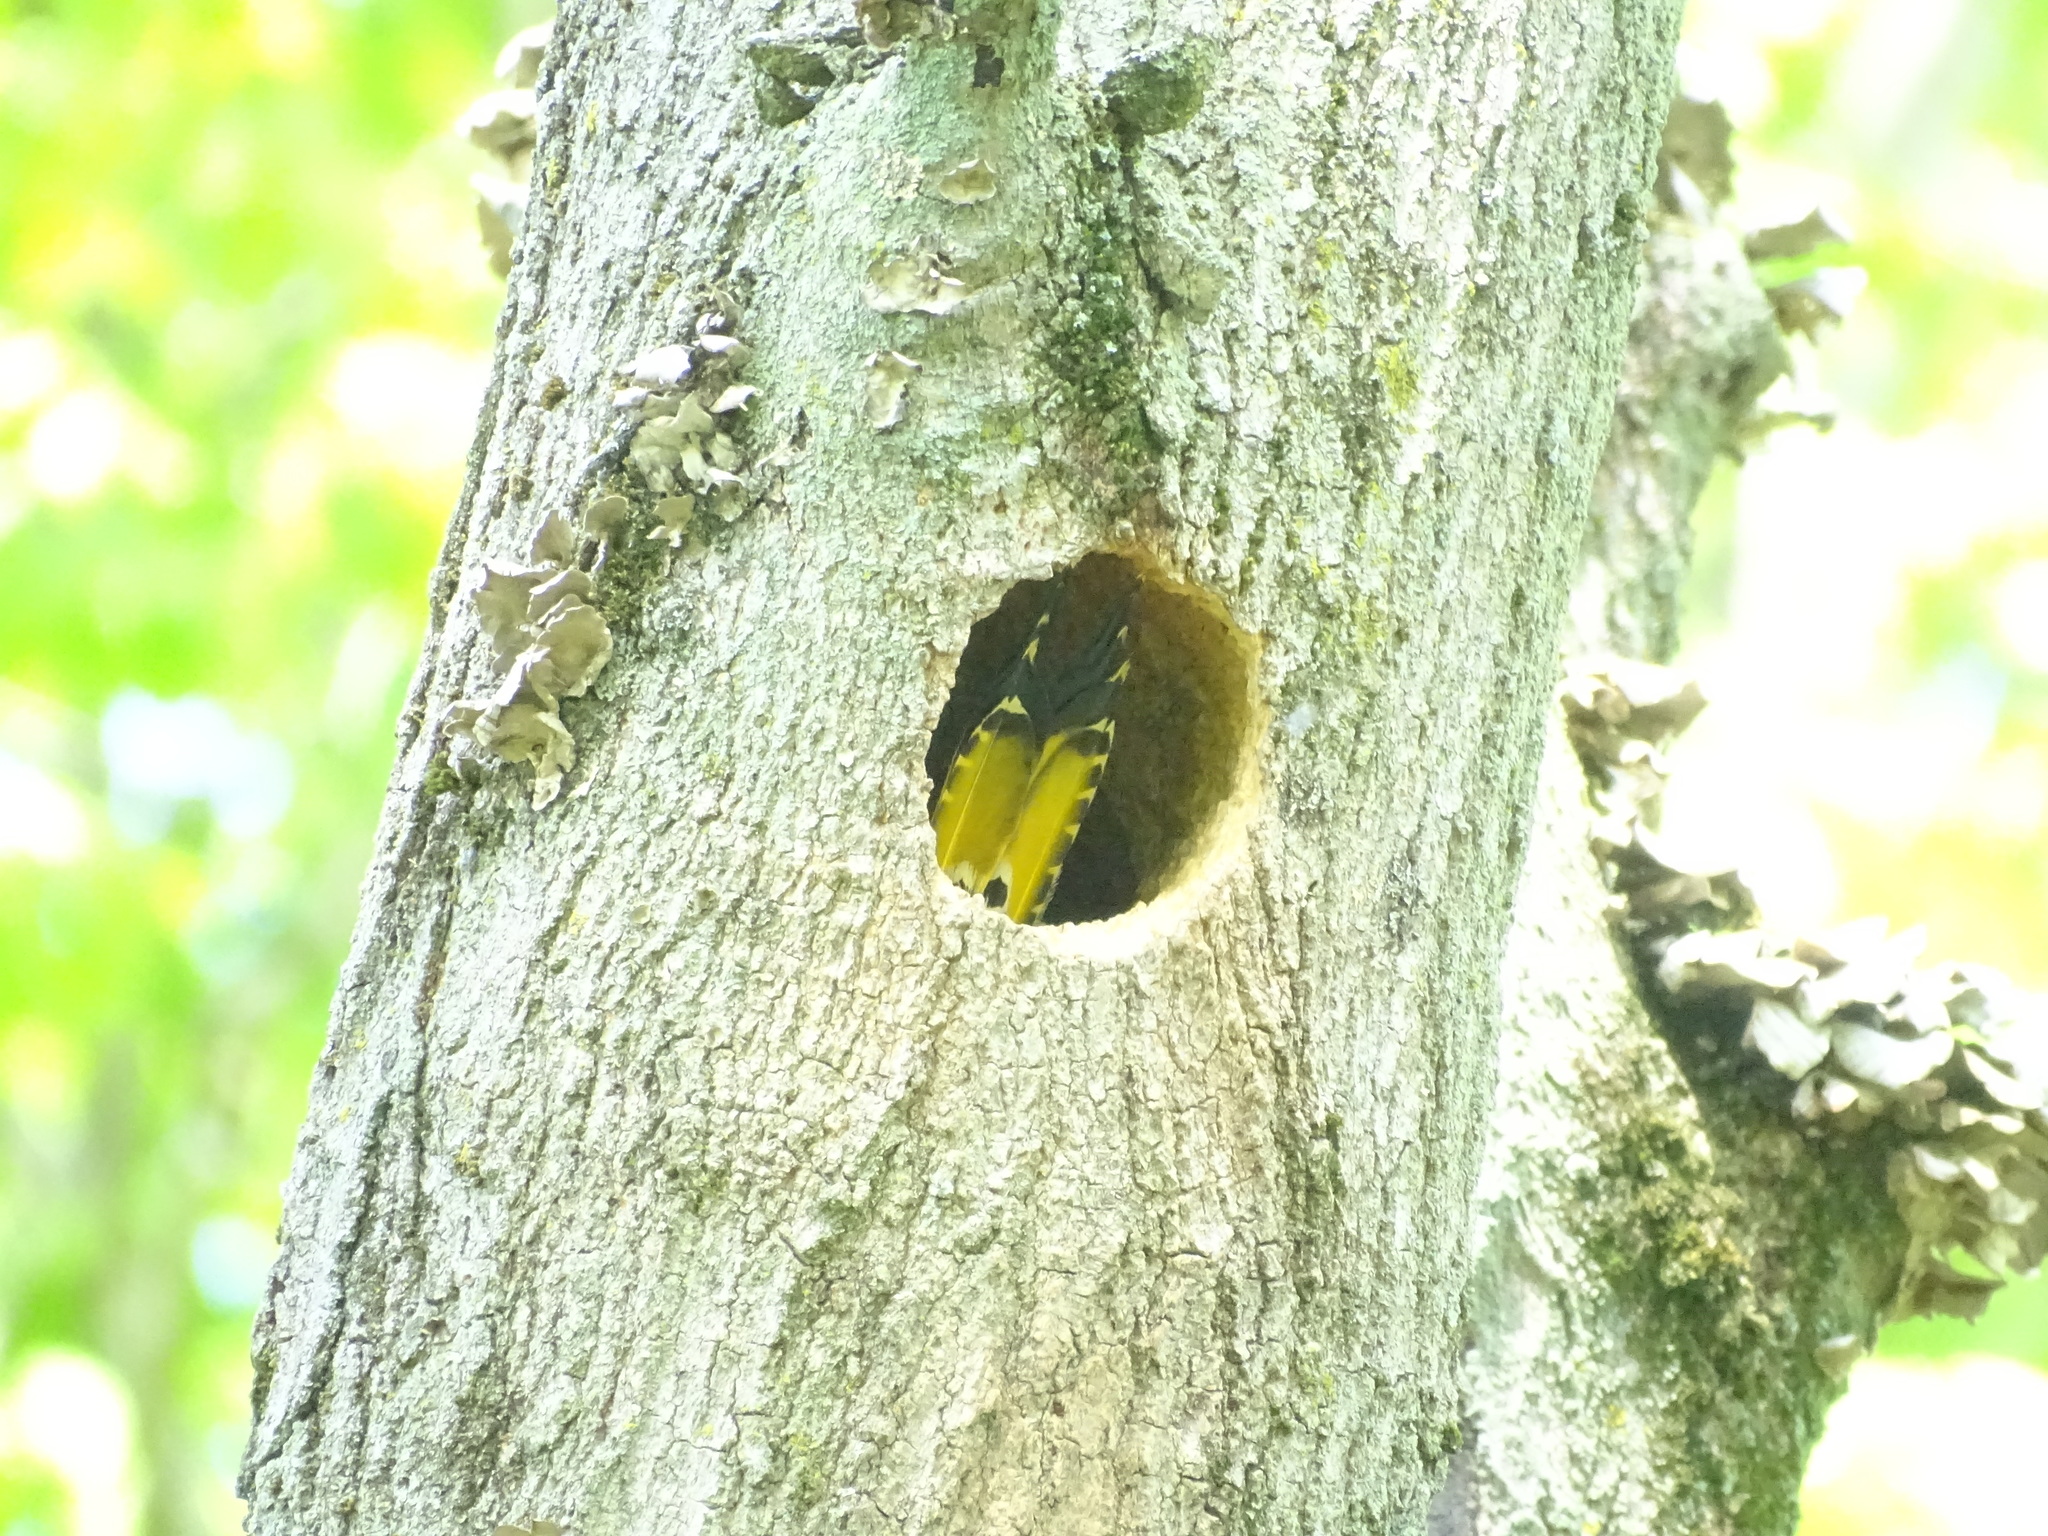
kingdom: Animalia
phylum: Chordata
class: Aves
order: Piciformes
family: Picidae
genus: Colaptes
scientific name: Colaptes auratus
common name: Northern flicker
